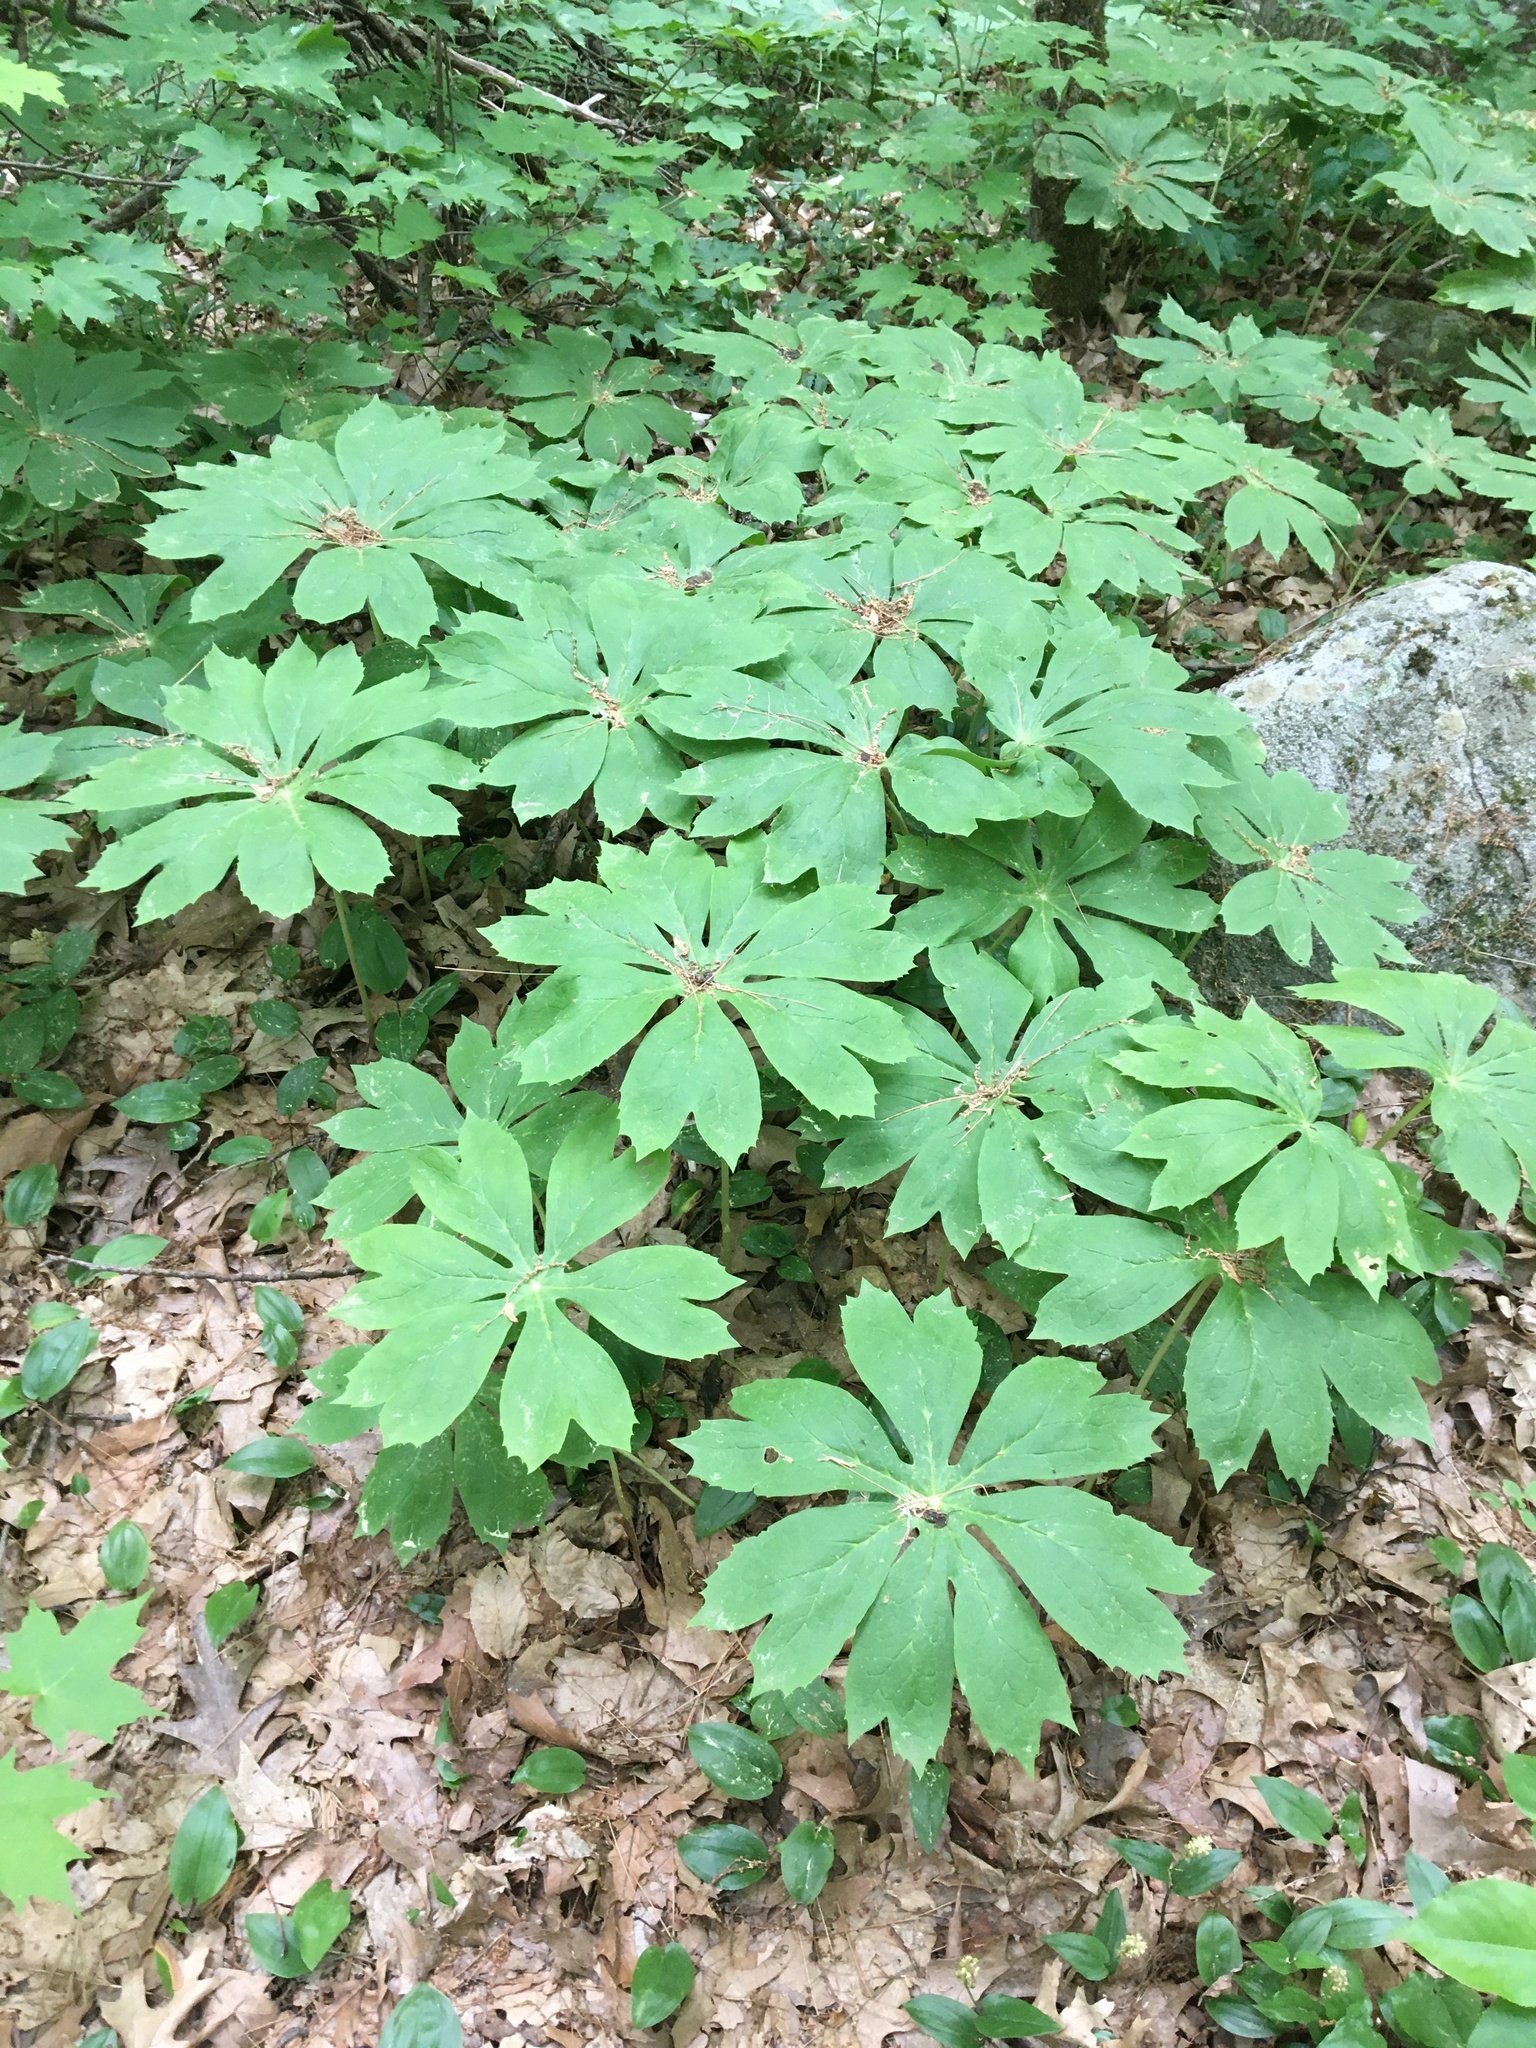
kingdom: Plantae
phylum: Tracheophyta
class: Magnoliopsida
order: Ranunculales
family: Berberidaceae
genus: Podophyllum
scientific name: Podophyllum peltatum
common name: Wild mandrake
